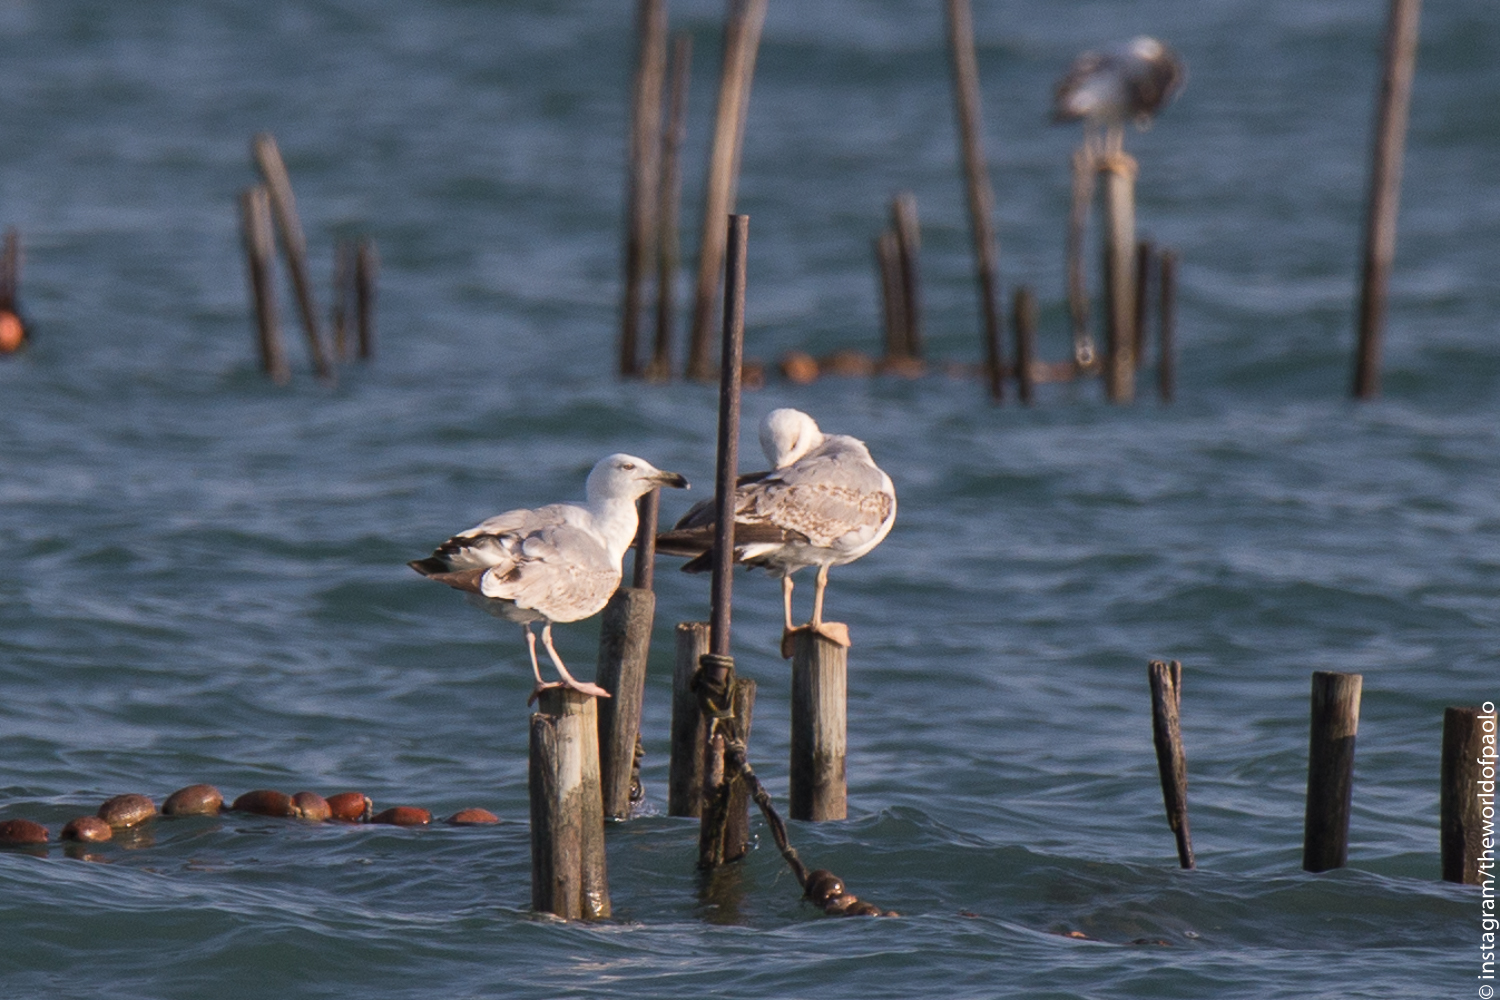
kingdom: Animalia
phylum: Chordata
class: Aves
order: Charadriiformes
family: Laridae
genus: Larus
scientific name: Larus michahellis
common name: Yellow-legged gull
